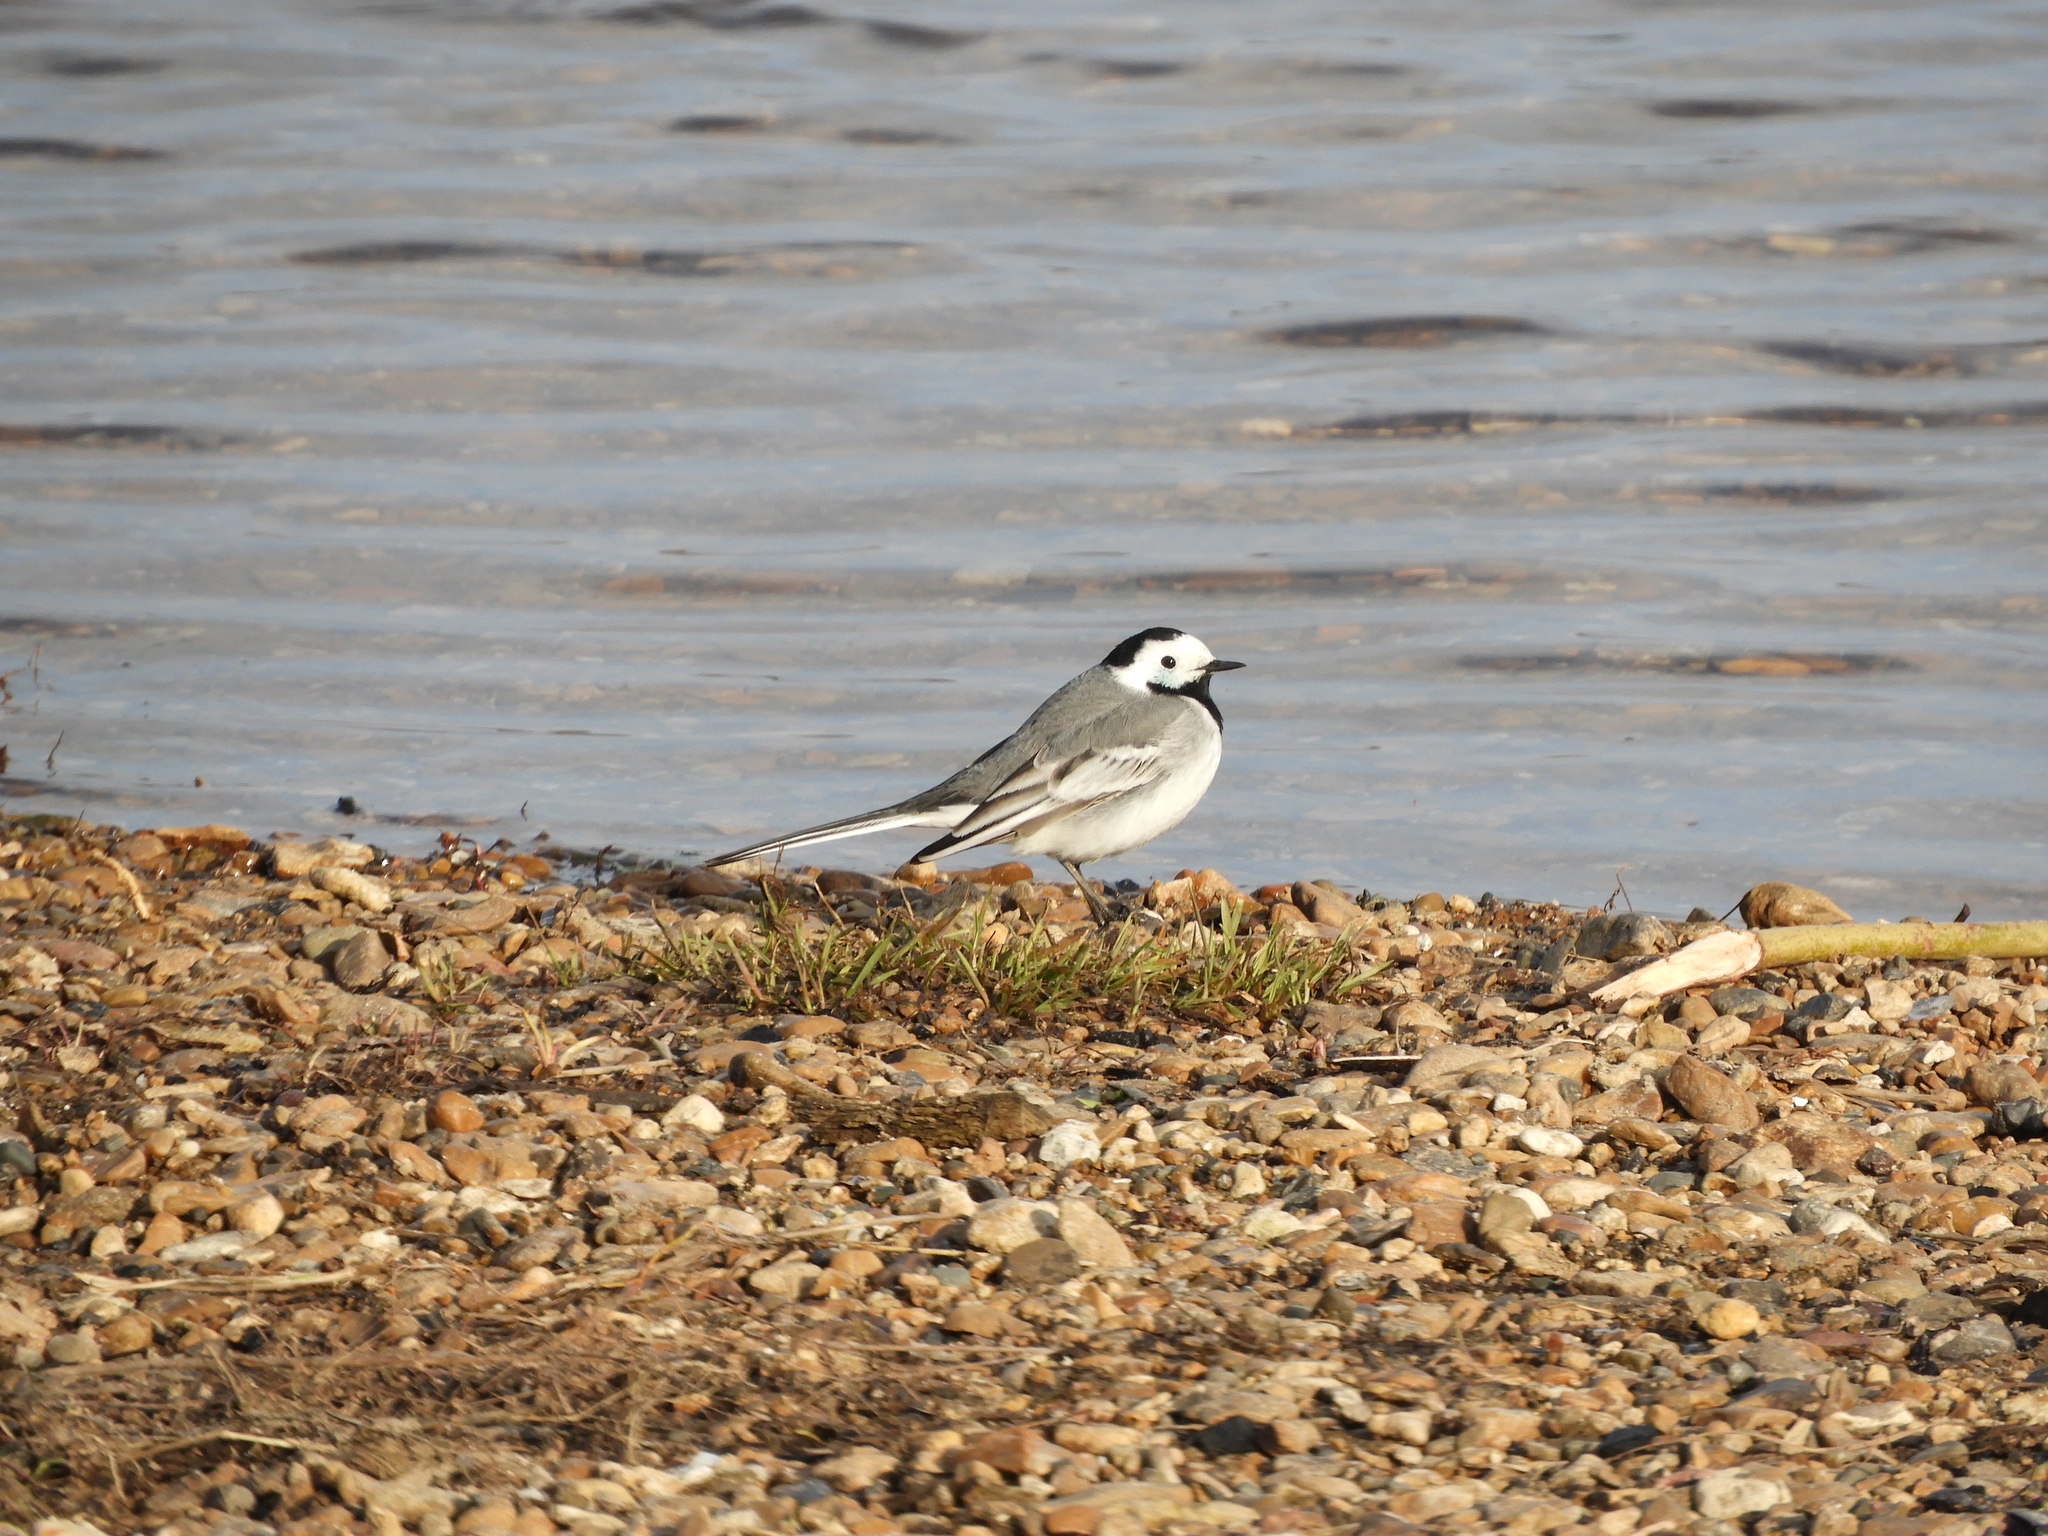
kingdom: Animalia
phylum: Chordata
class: Aves
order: Passeriformes
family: Motacillidae
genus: Motacilla
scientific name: Motacilla alba
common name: White wagtail
